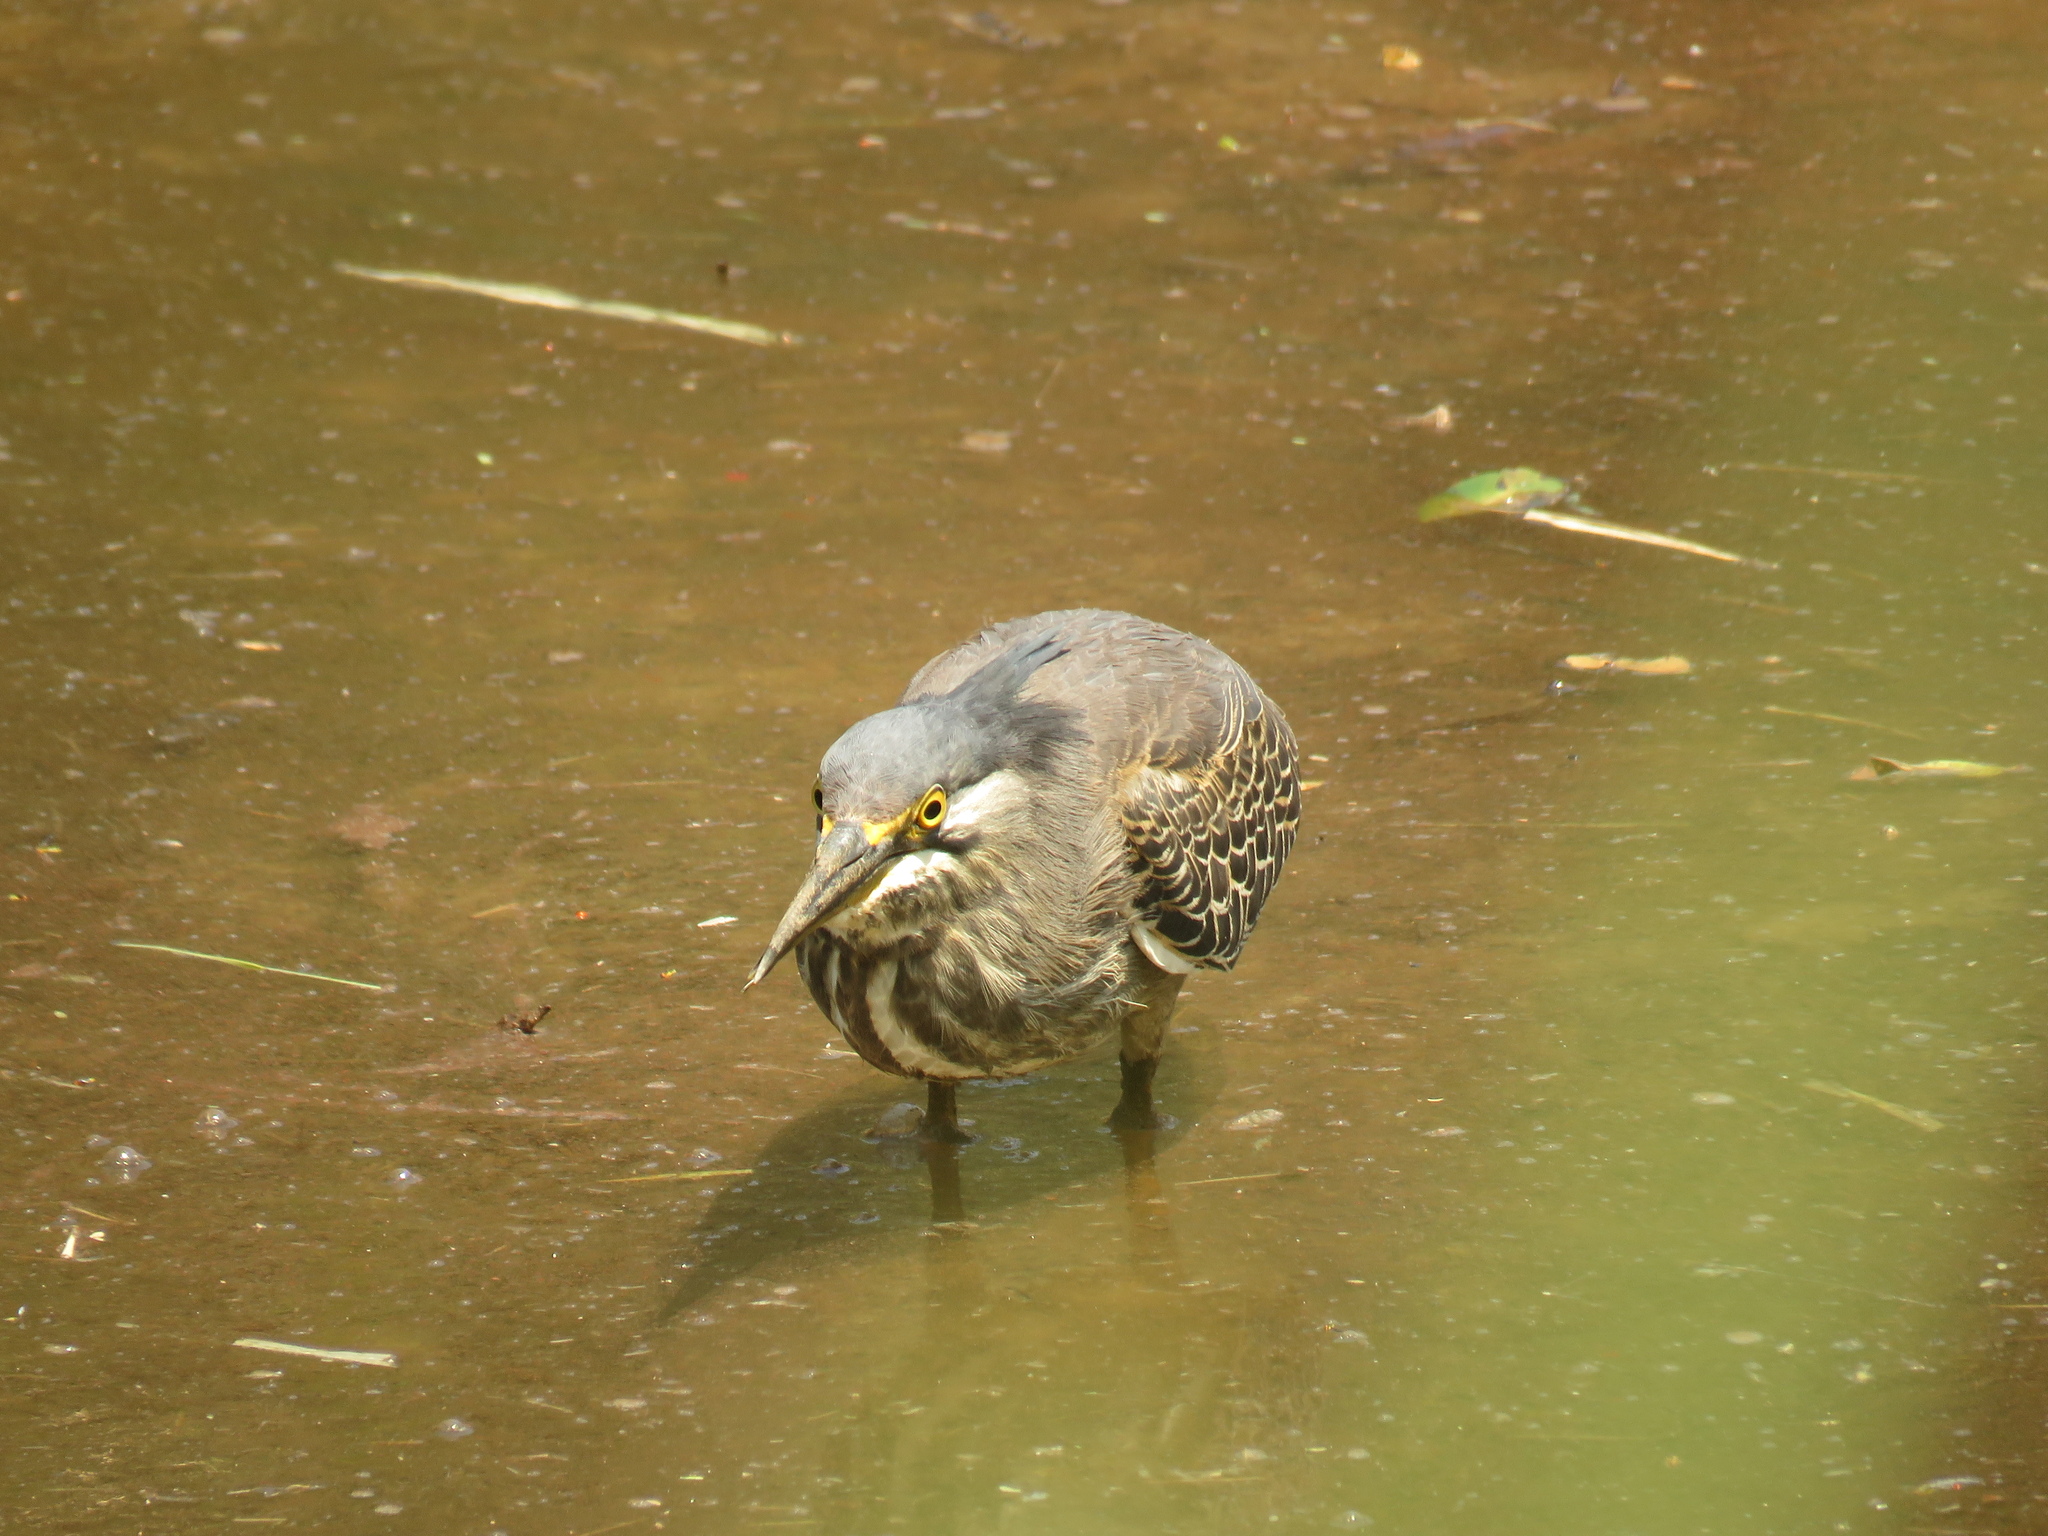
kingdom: Animalia
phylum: Chordata
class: Aves
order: Pelecaniformes
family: Ardeidae
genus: Butorides
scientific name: Butorides striata
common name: Striated heron
